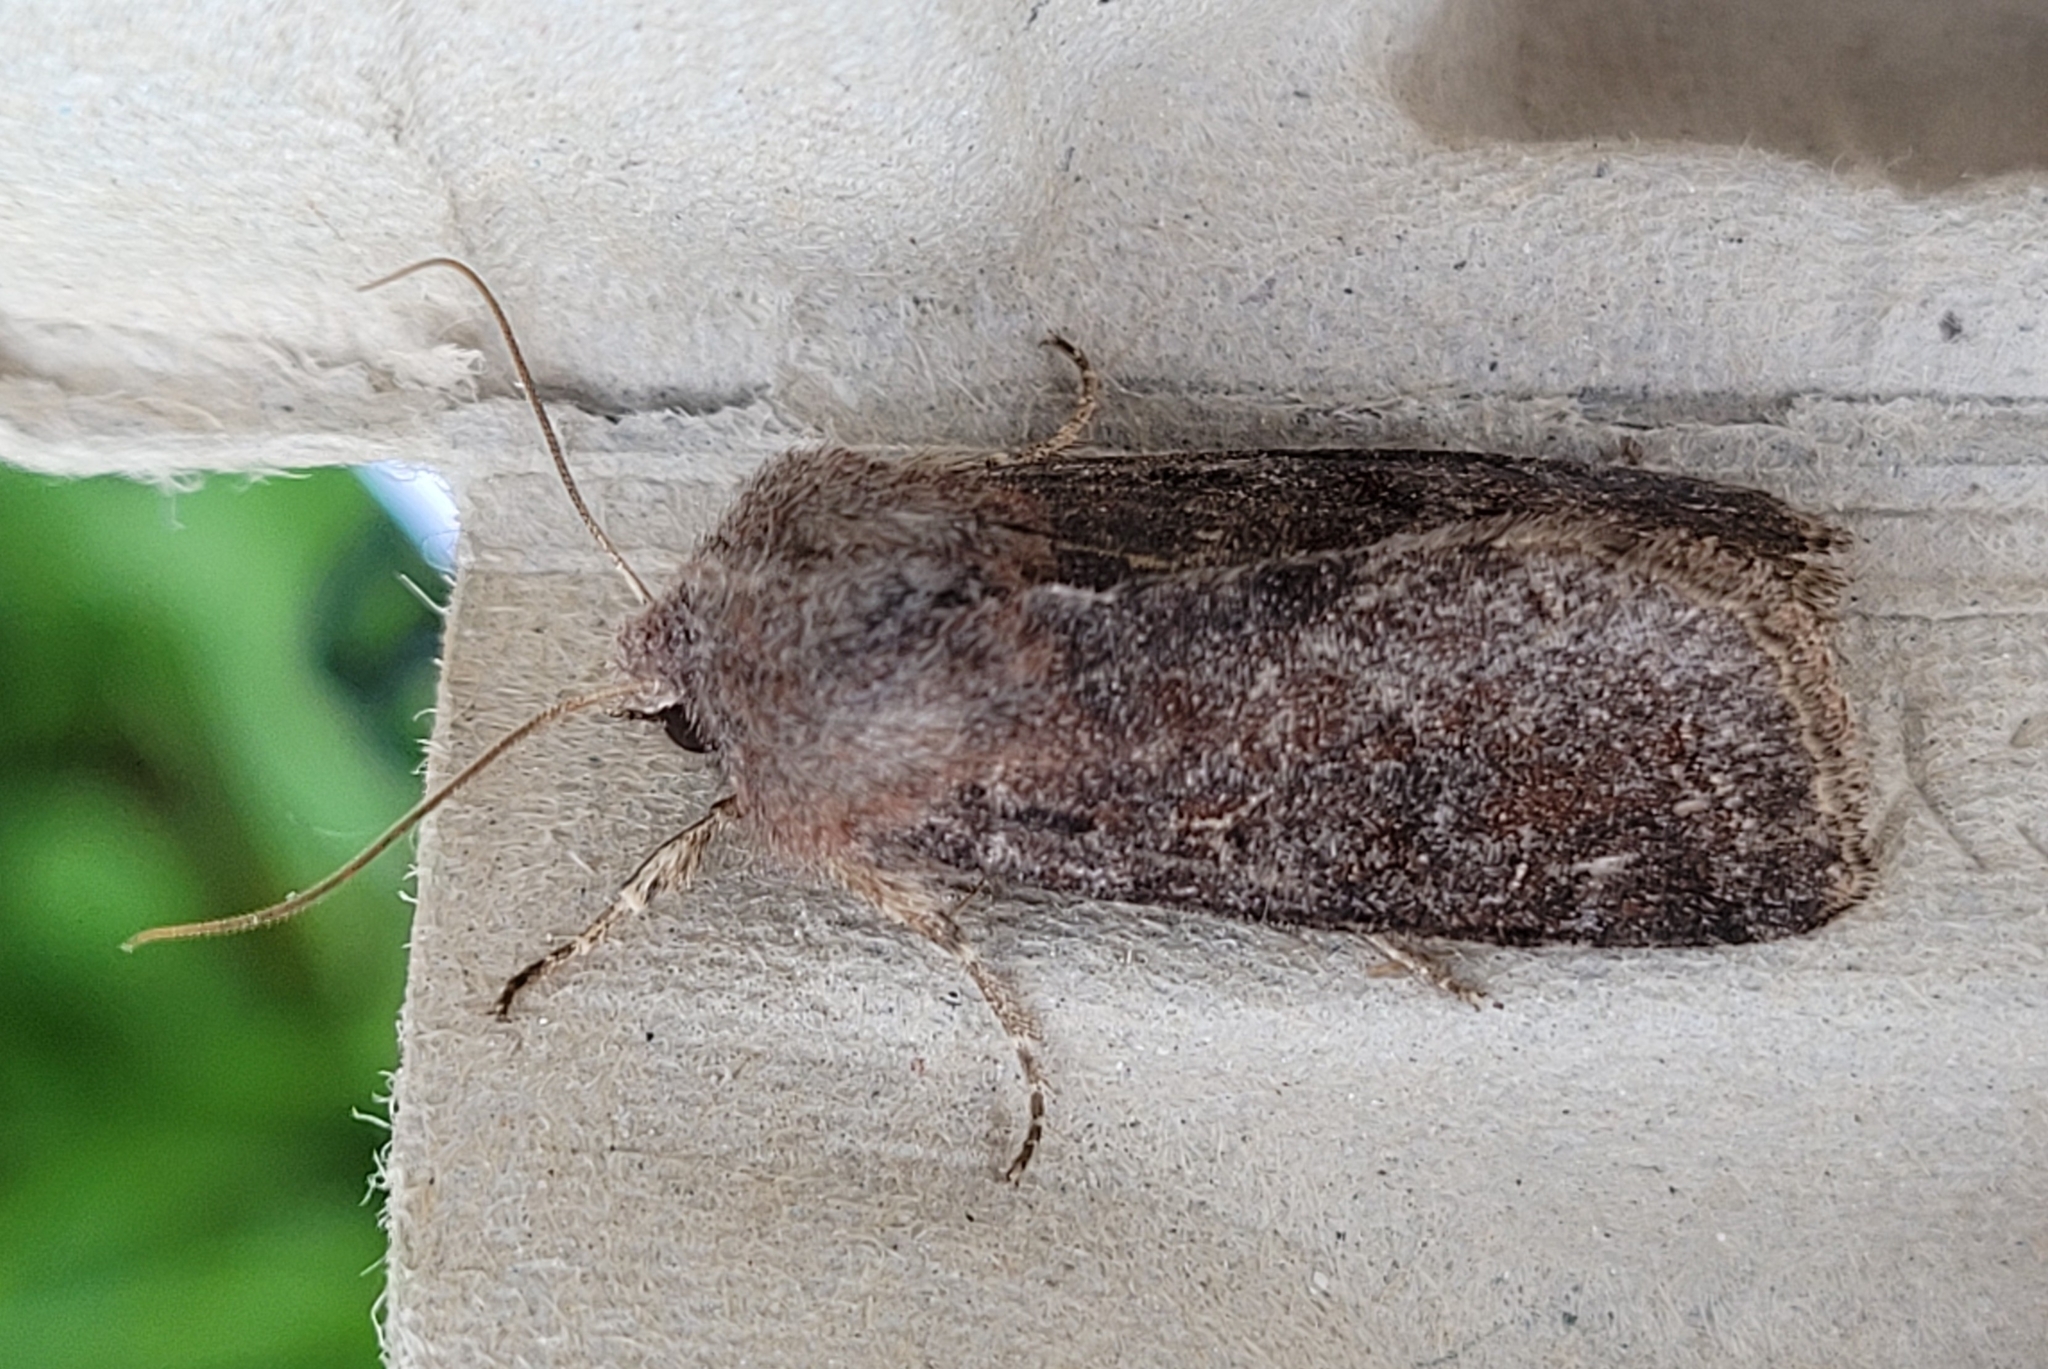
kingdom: Animalia
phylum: Arthropoda
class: Insecta
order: Lepidoptera
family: Noctuidae
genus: Orthosia
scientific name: Orthosia incerta
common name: Clouded drab
